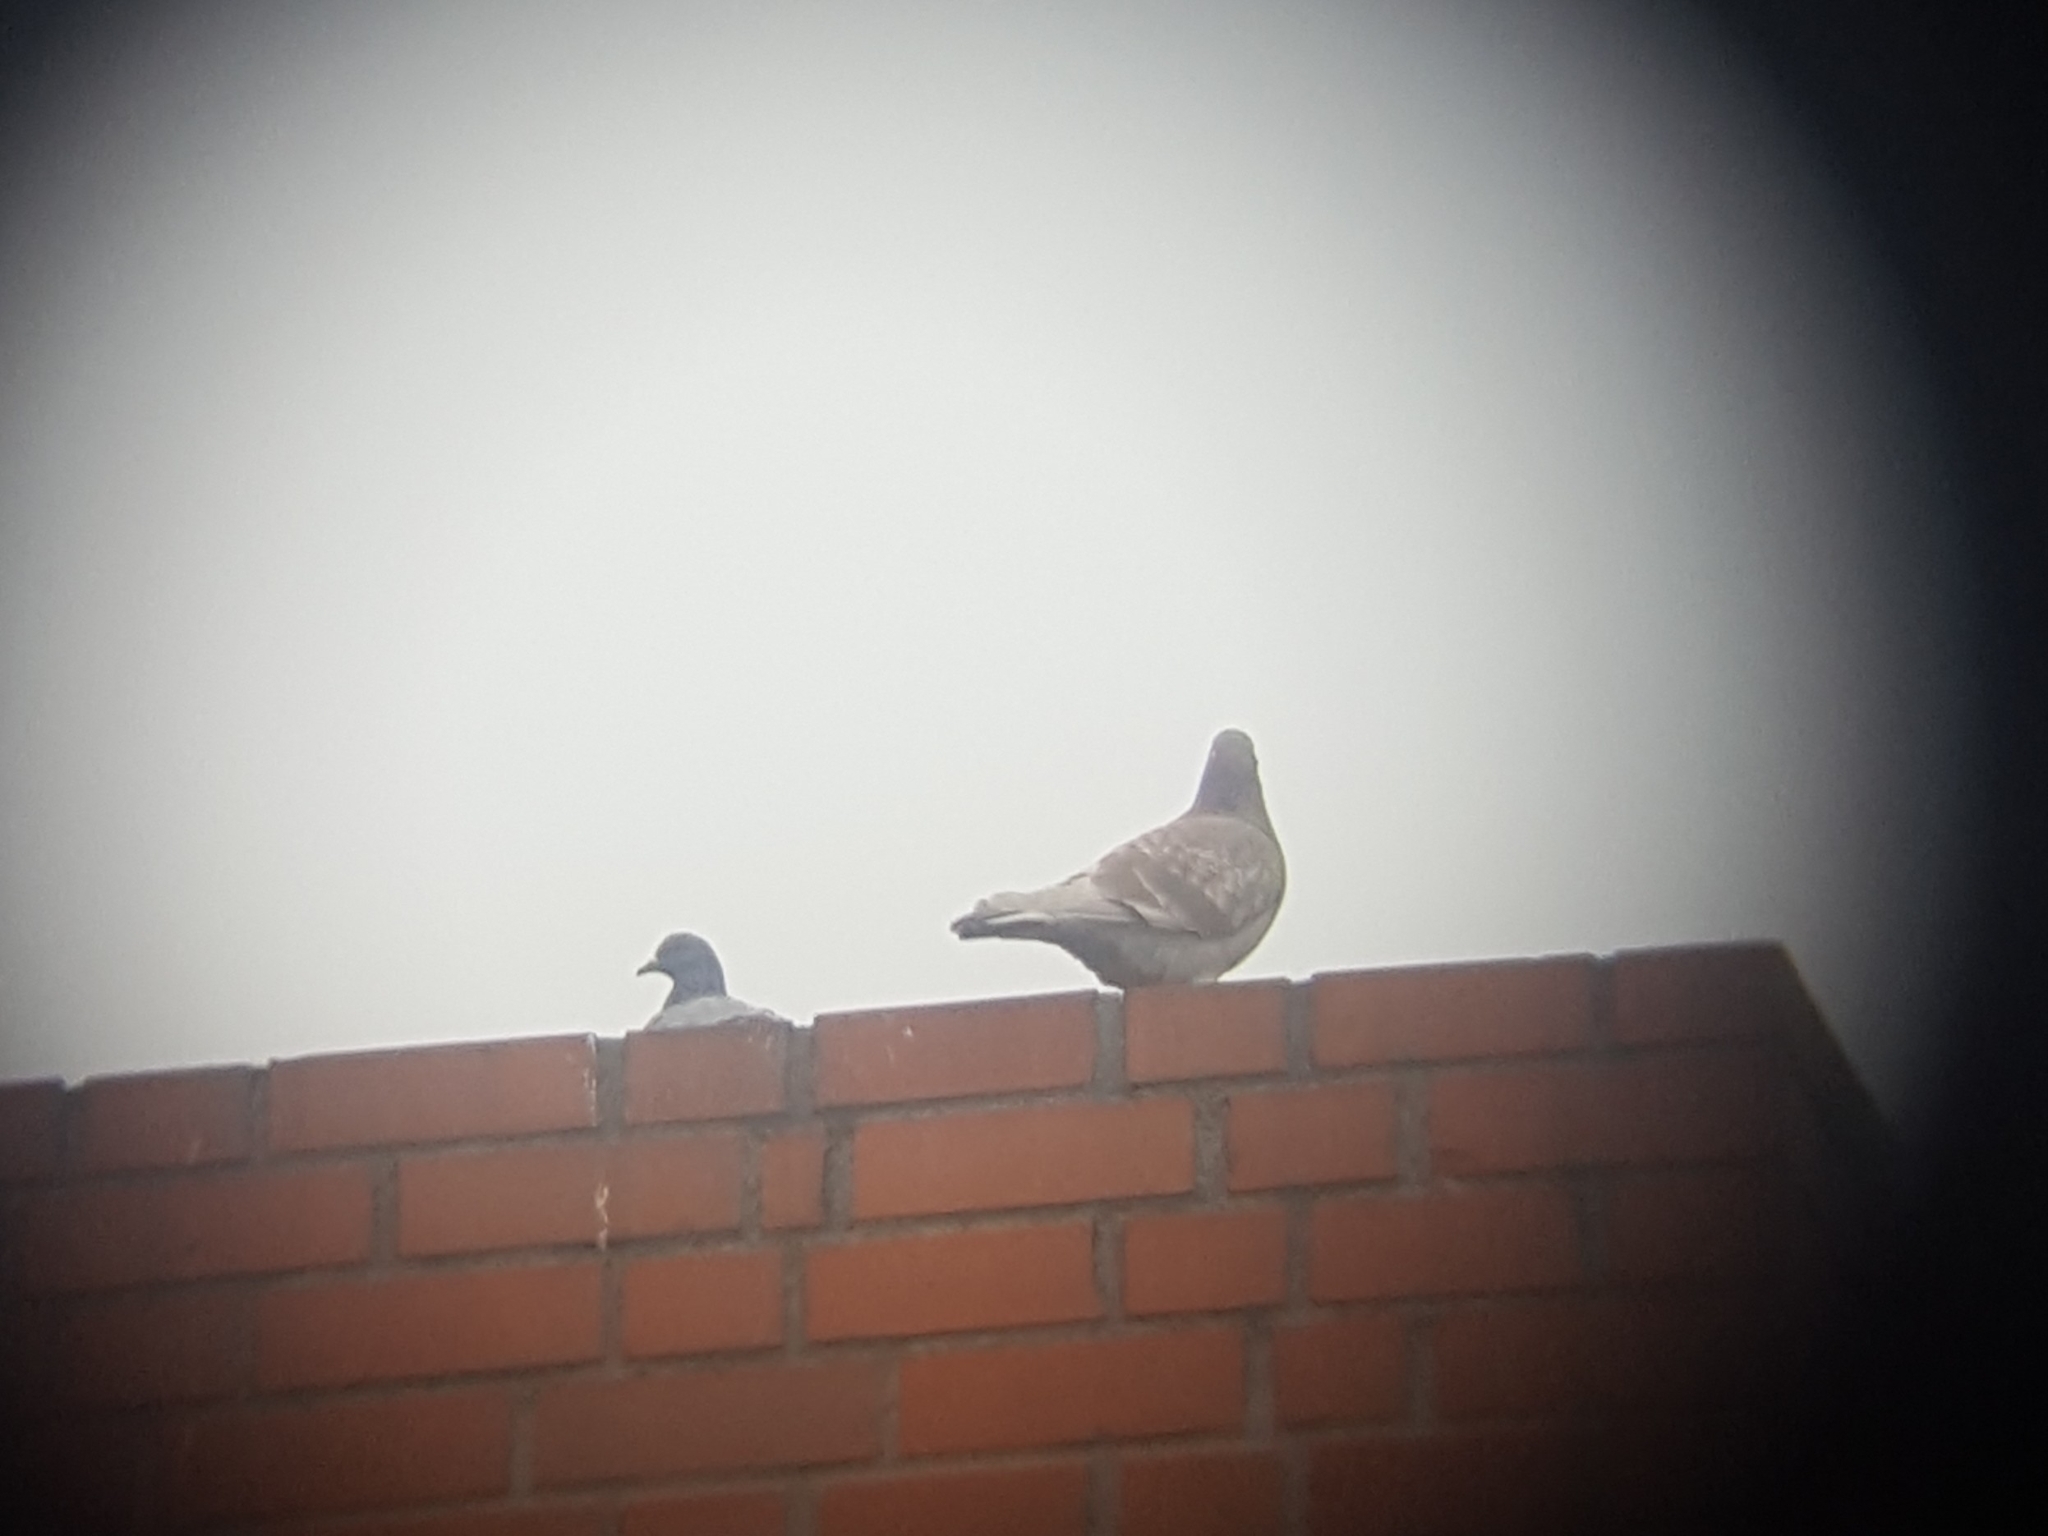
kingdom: Animalia
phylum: Chordata
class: Aves
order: Columbiformes
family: Columbidae
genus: Columba
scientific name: Columba livia
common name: Rock pigeon
